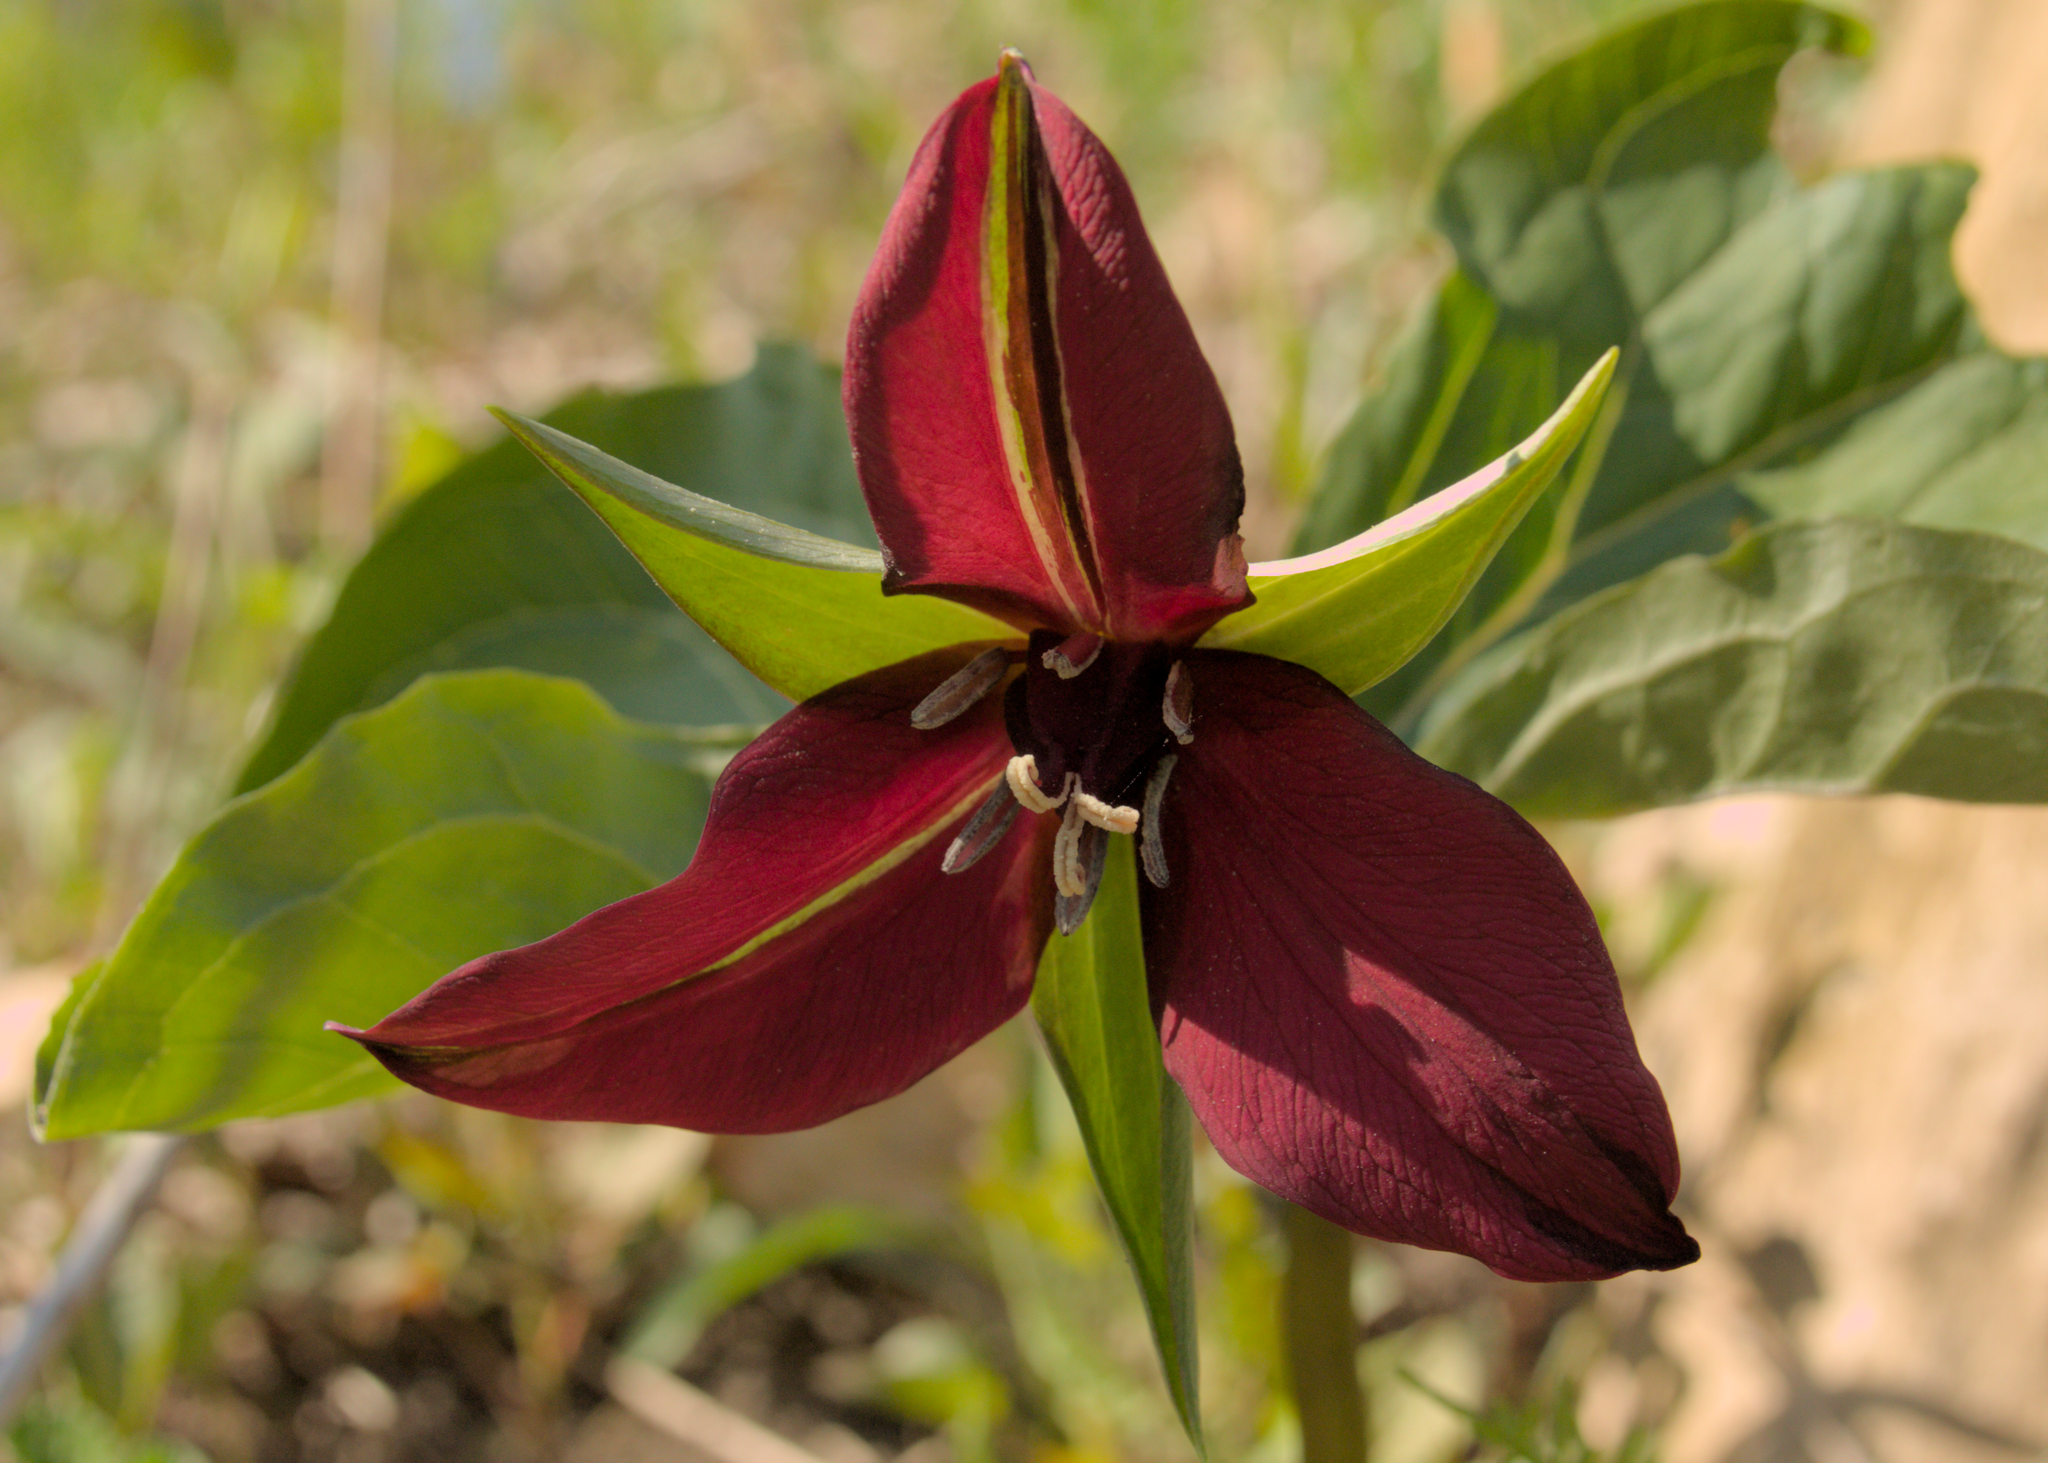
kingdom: Plantae
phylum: Tracheophyta
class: Liliopsida
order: Liliales
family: Melanthiaceae
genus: Trillium
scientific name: Trillium erectum
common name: Purple trillium
